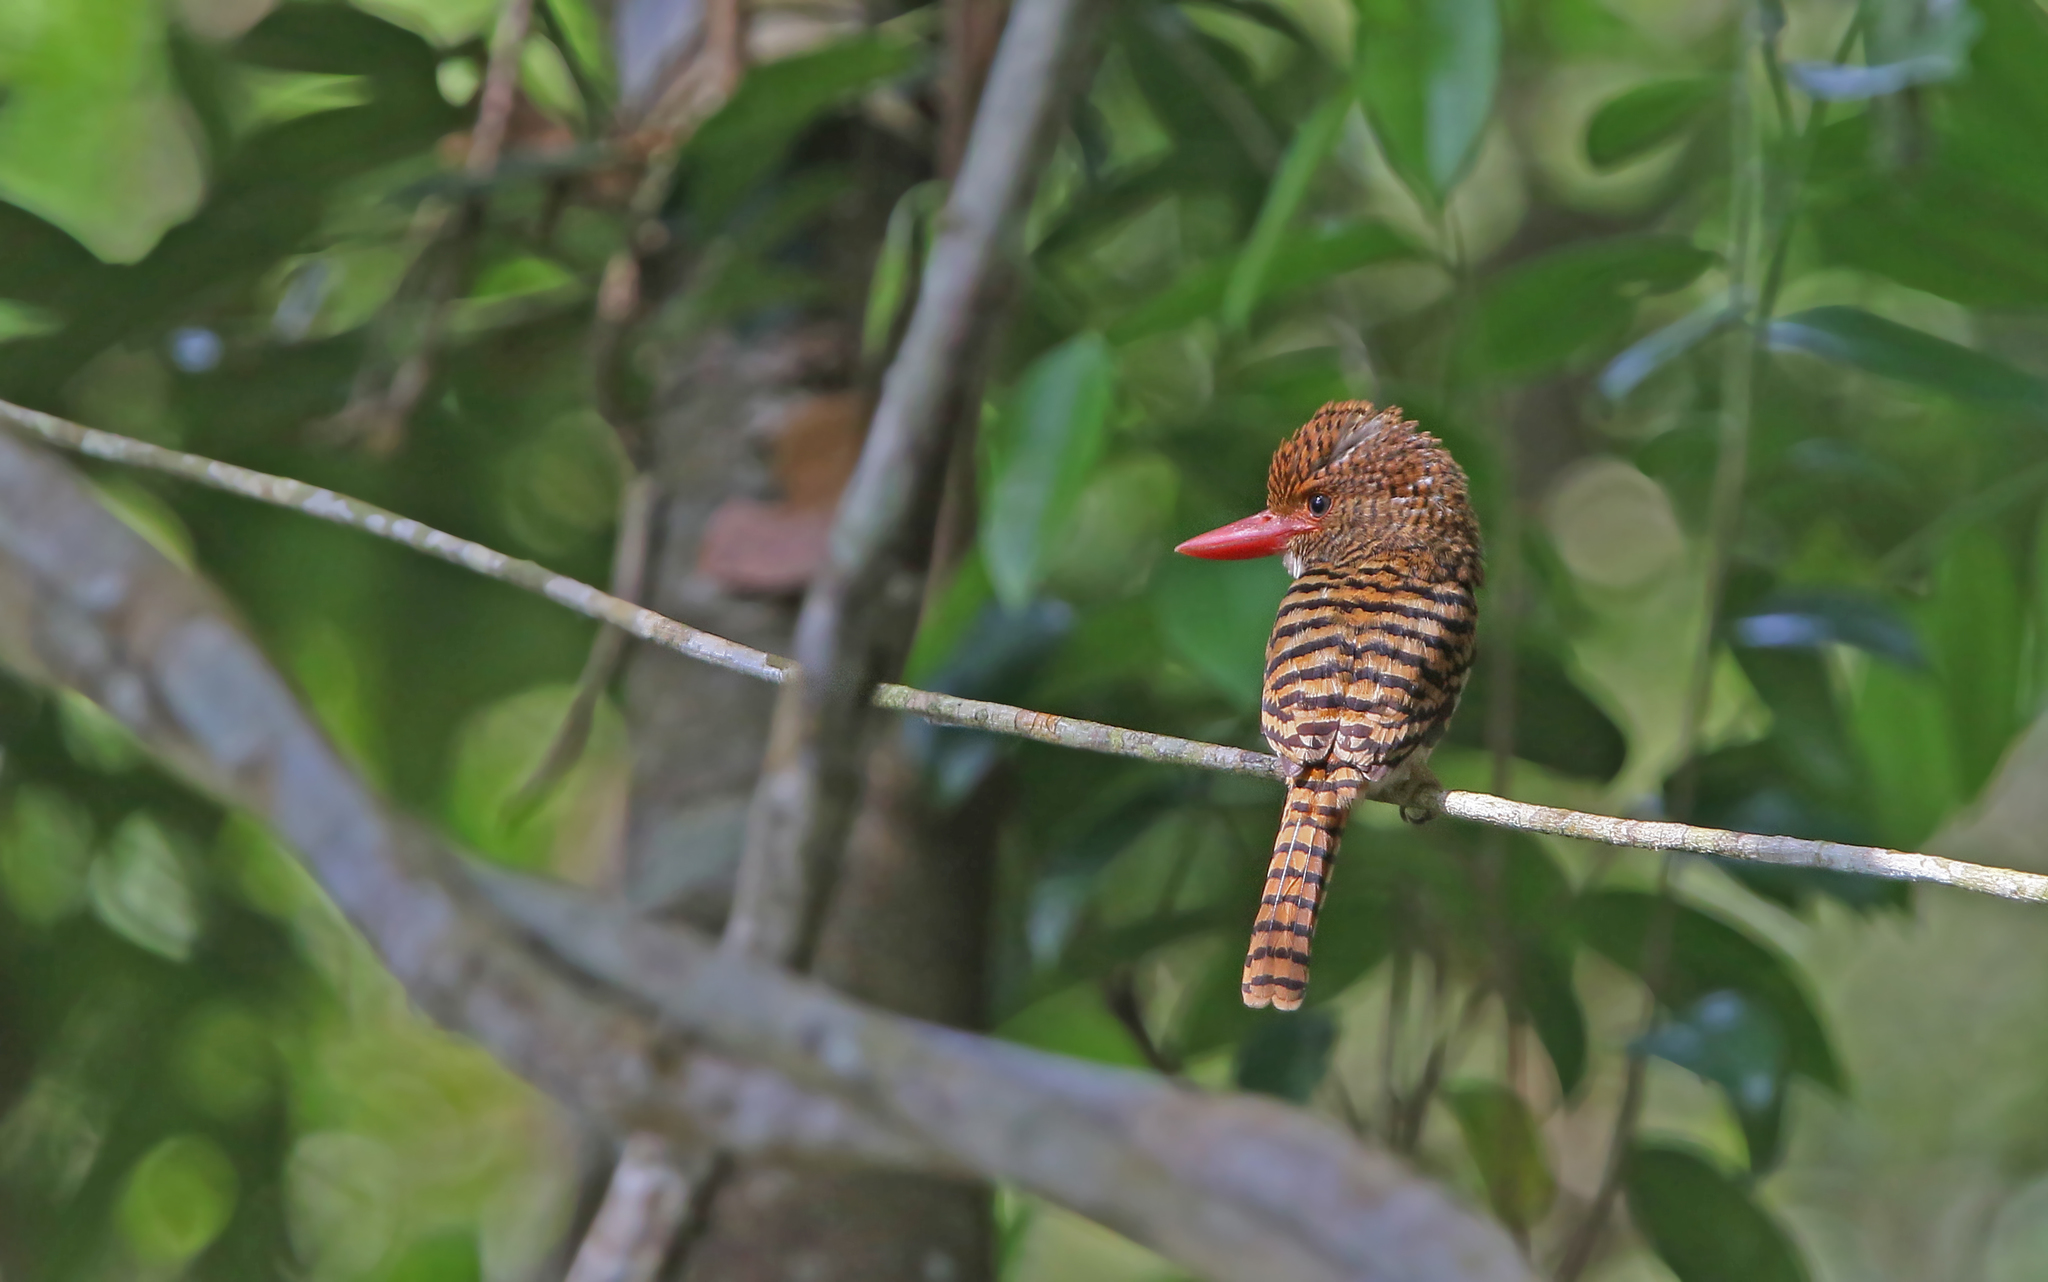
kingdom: Animalia
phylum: Chordata
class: Aves
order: Coraciiformes
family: Alcedinidae
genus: Lacedo
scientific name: Lacedo pulchella
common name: Banded kingfisher
